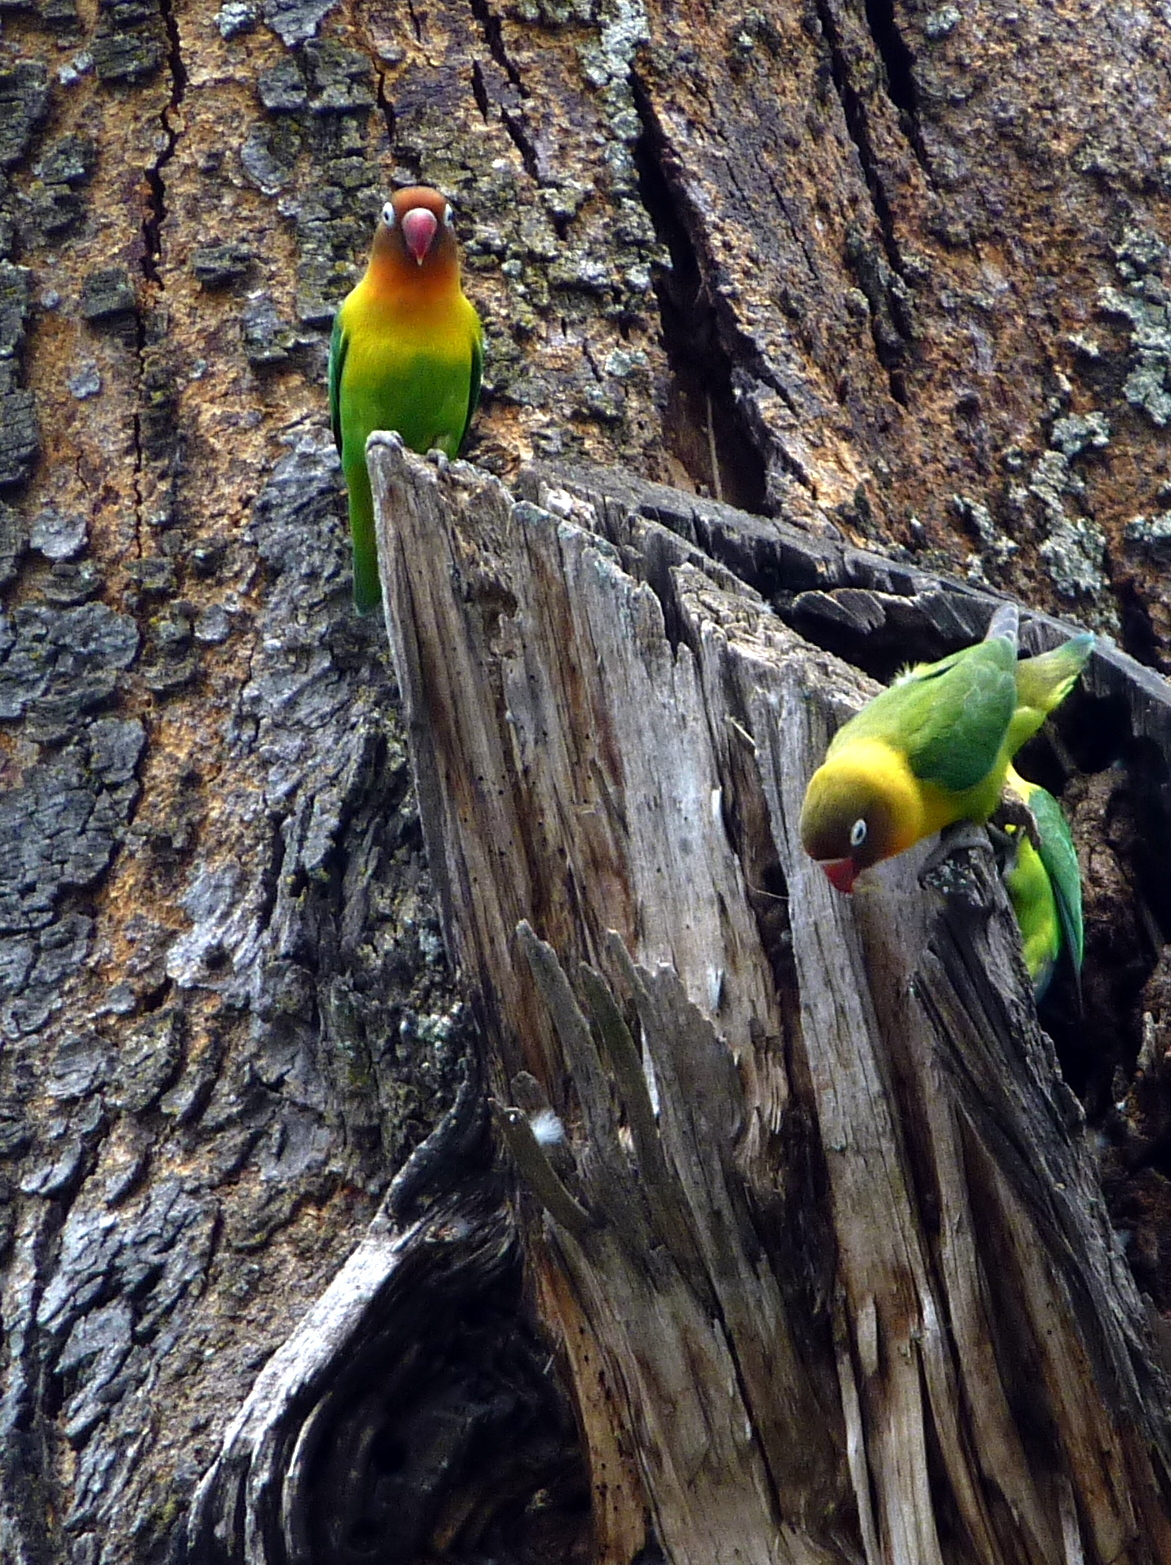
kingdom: Animalia
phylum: Chordata
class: Aves
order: Psittaciformes
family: Psittacidae
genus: Agapornis
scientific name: Agapornis
